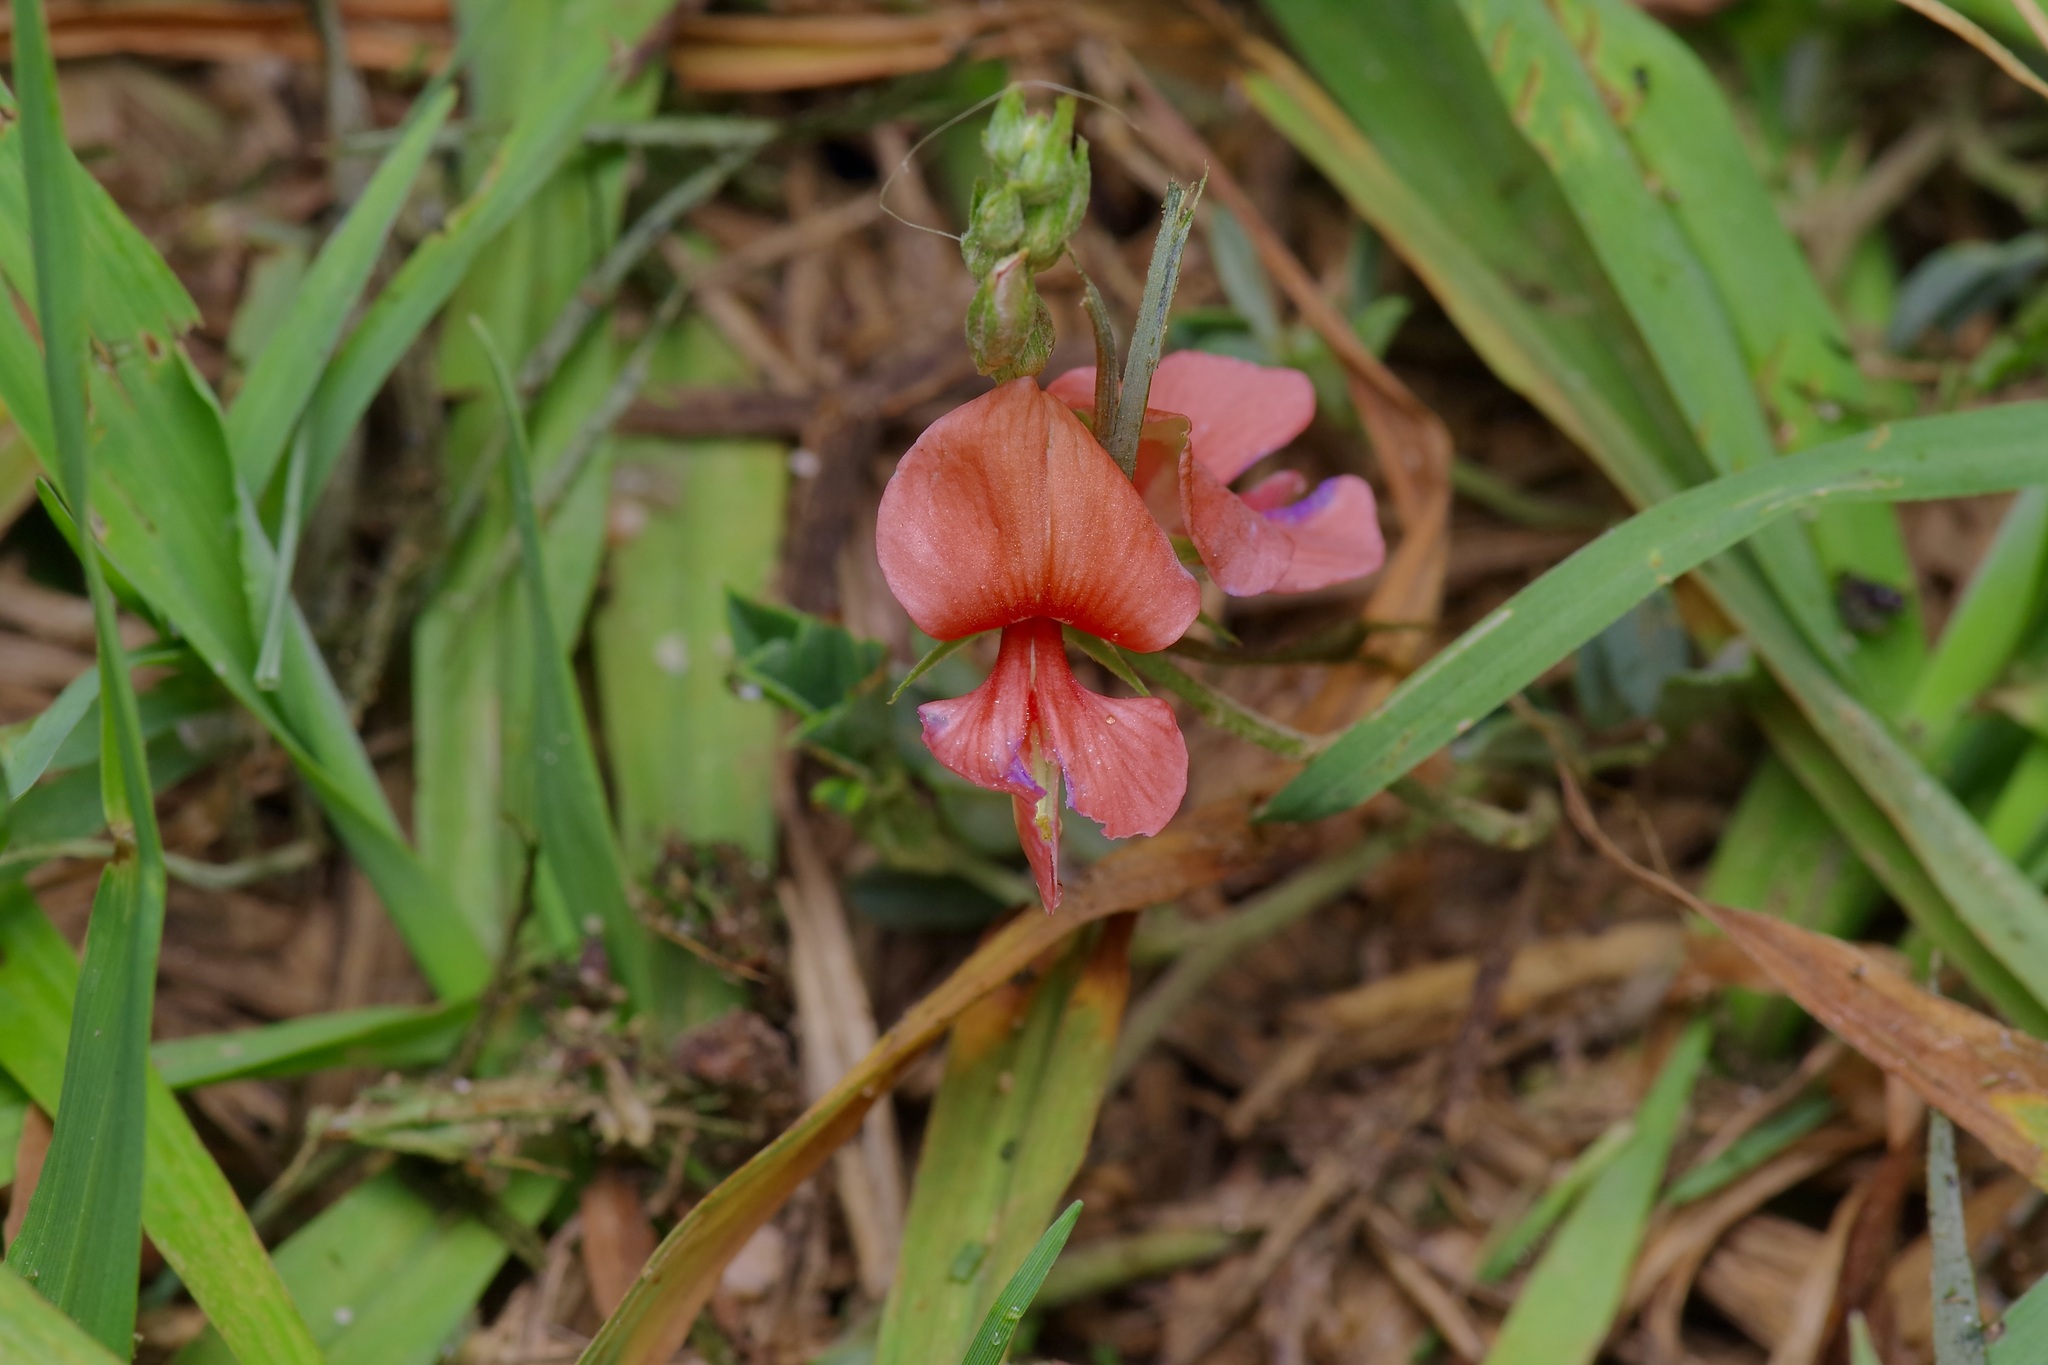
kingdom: Plantae
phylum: Tracheophyta
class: Magnoliopsida
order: Fabales
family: Fabaceae
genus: Indigofera
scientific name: Indigofera miniata
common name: Coast indigo
